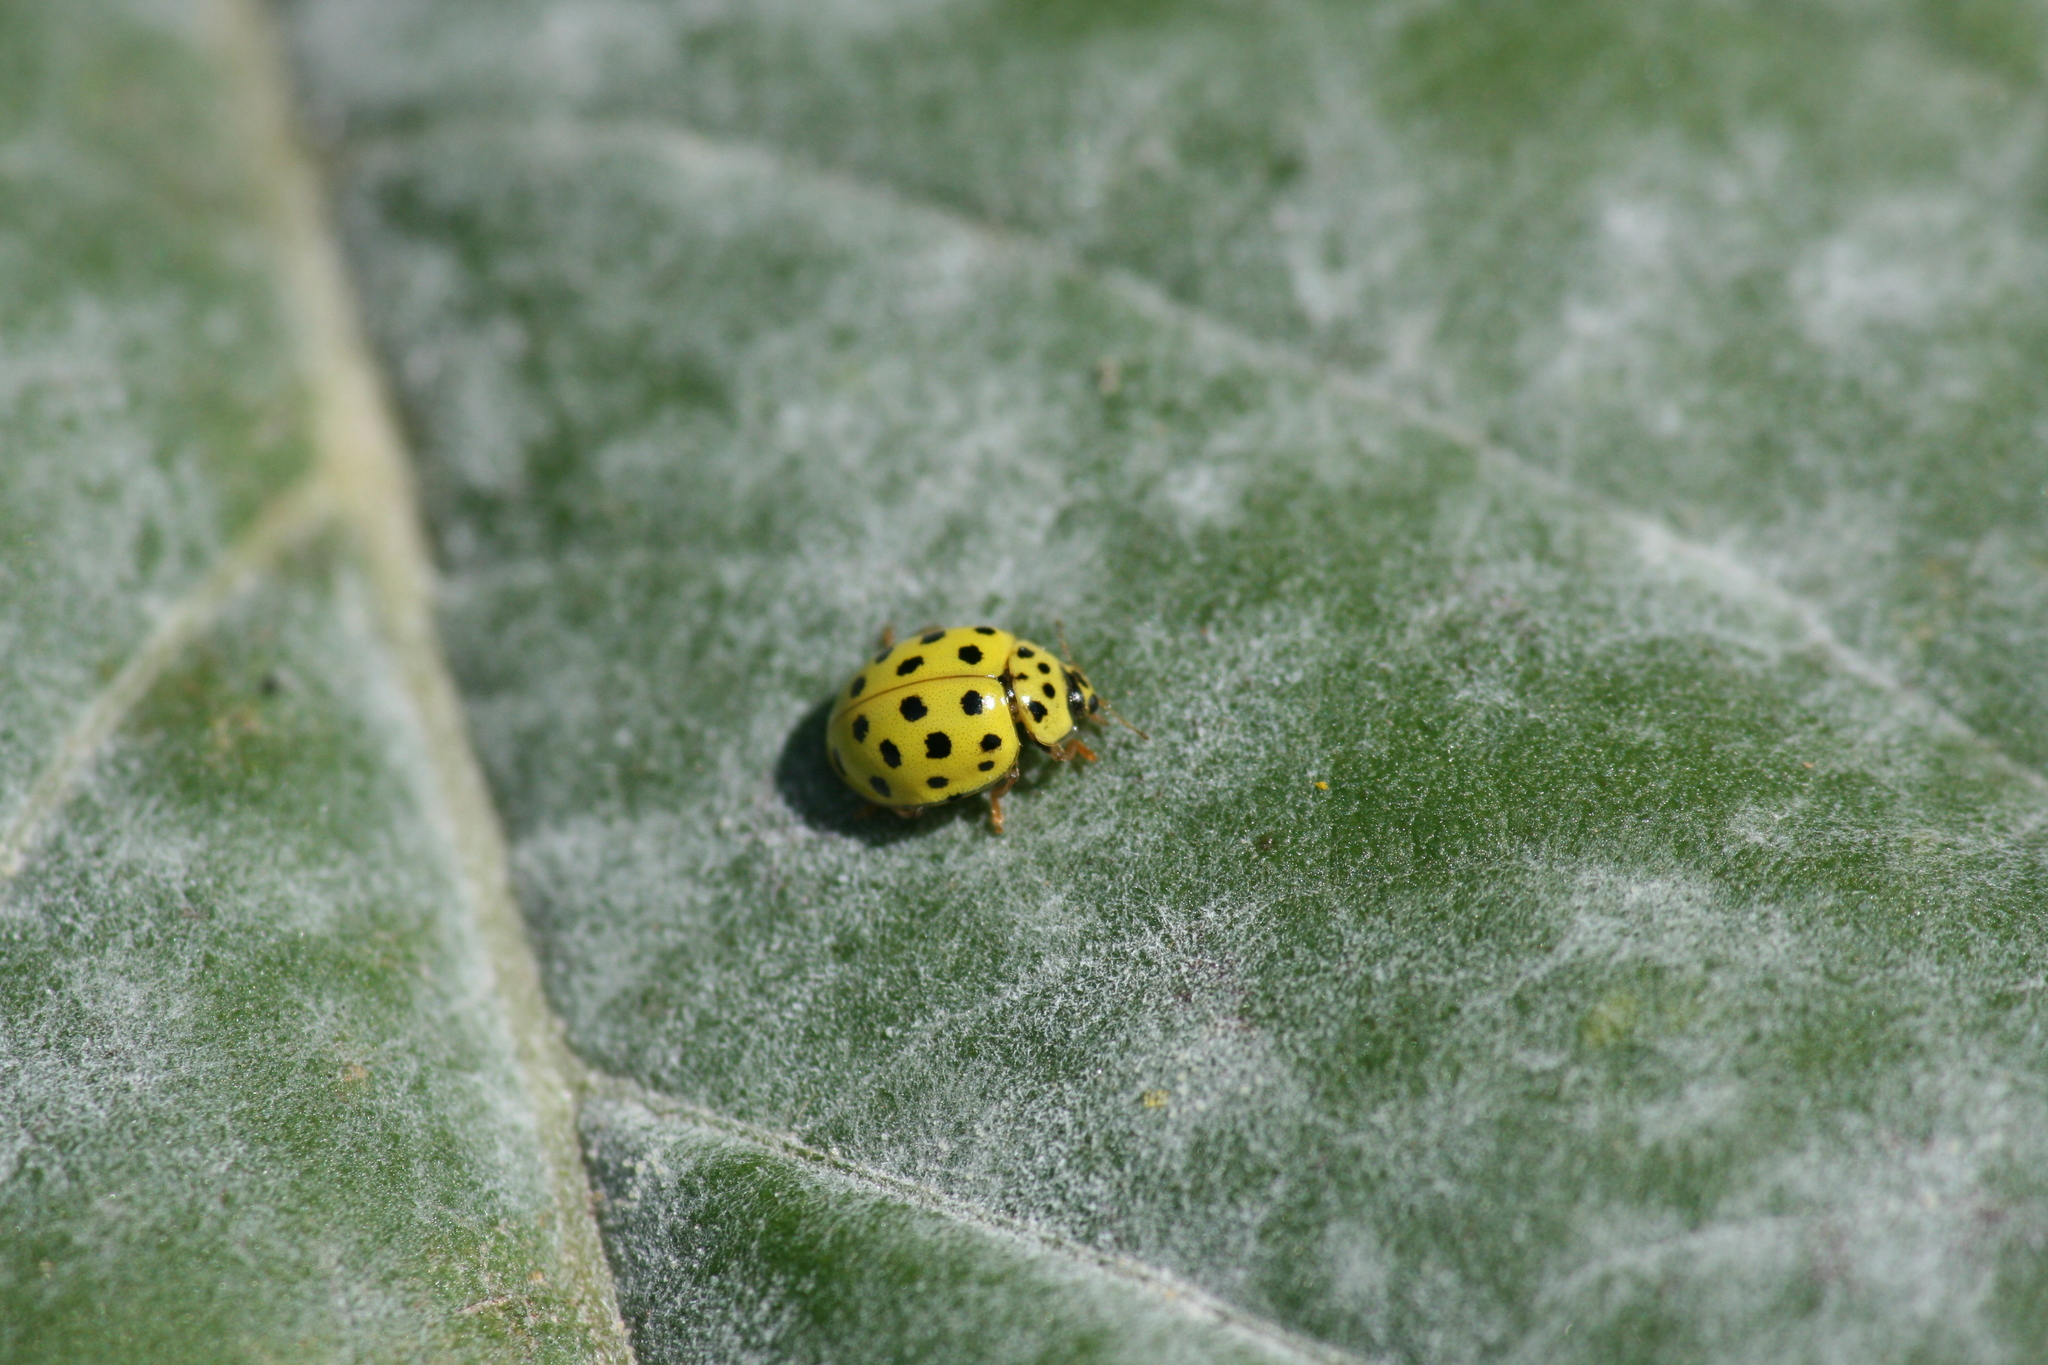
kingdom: Animalia
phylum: Arthropoda
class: Insecta
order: Coleoptera
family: Coccinellidae
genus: Psyllobora
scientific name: Psyllobora vigintiduopunctata
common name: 22-spot ladybird
